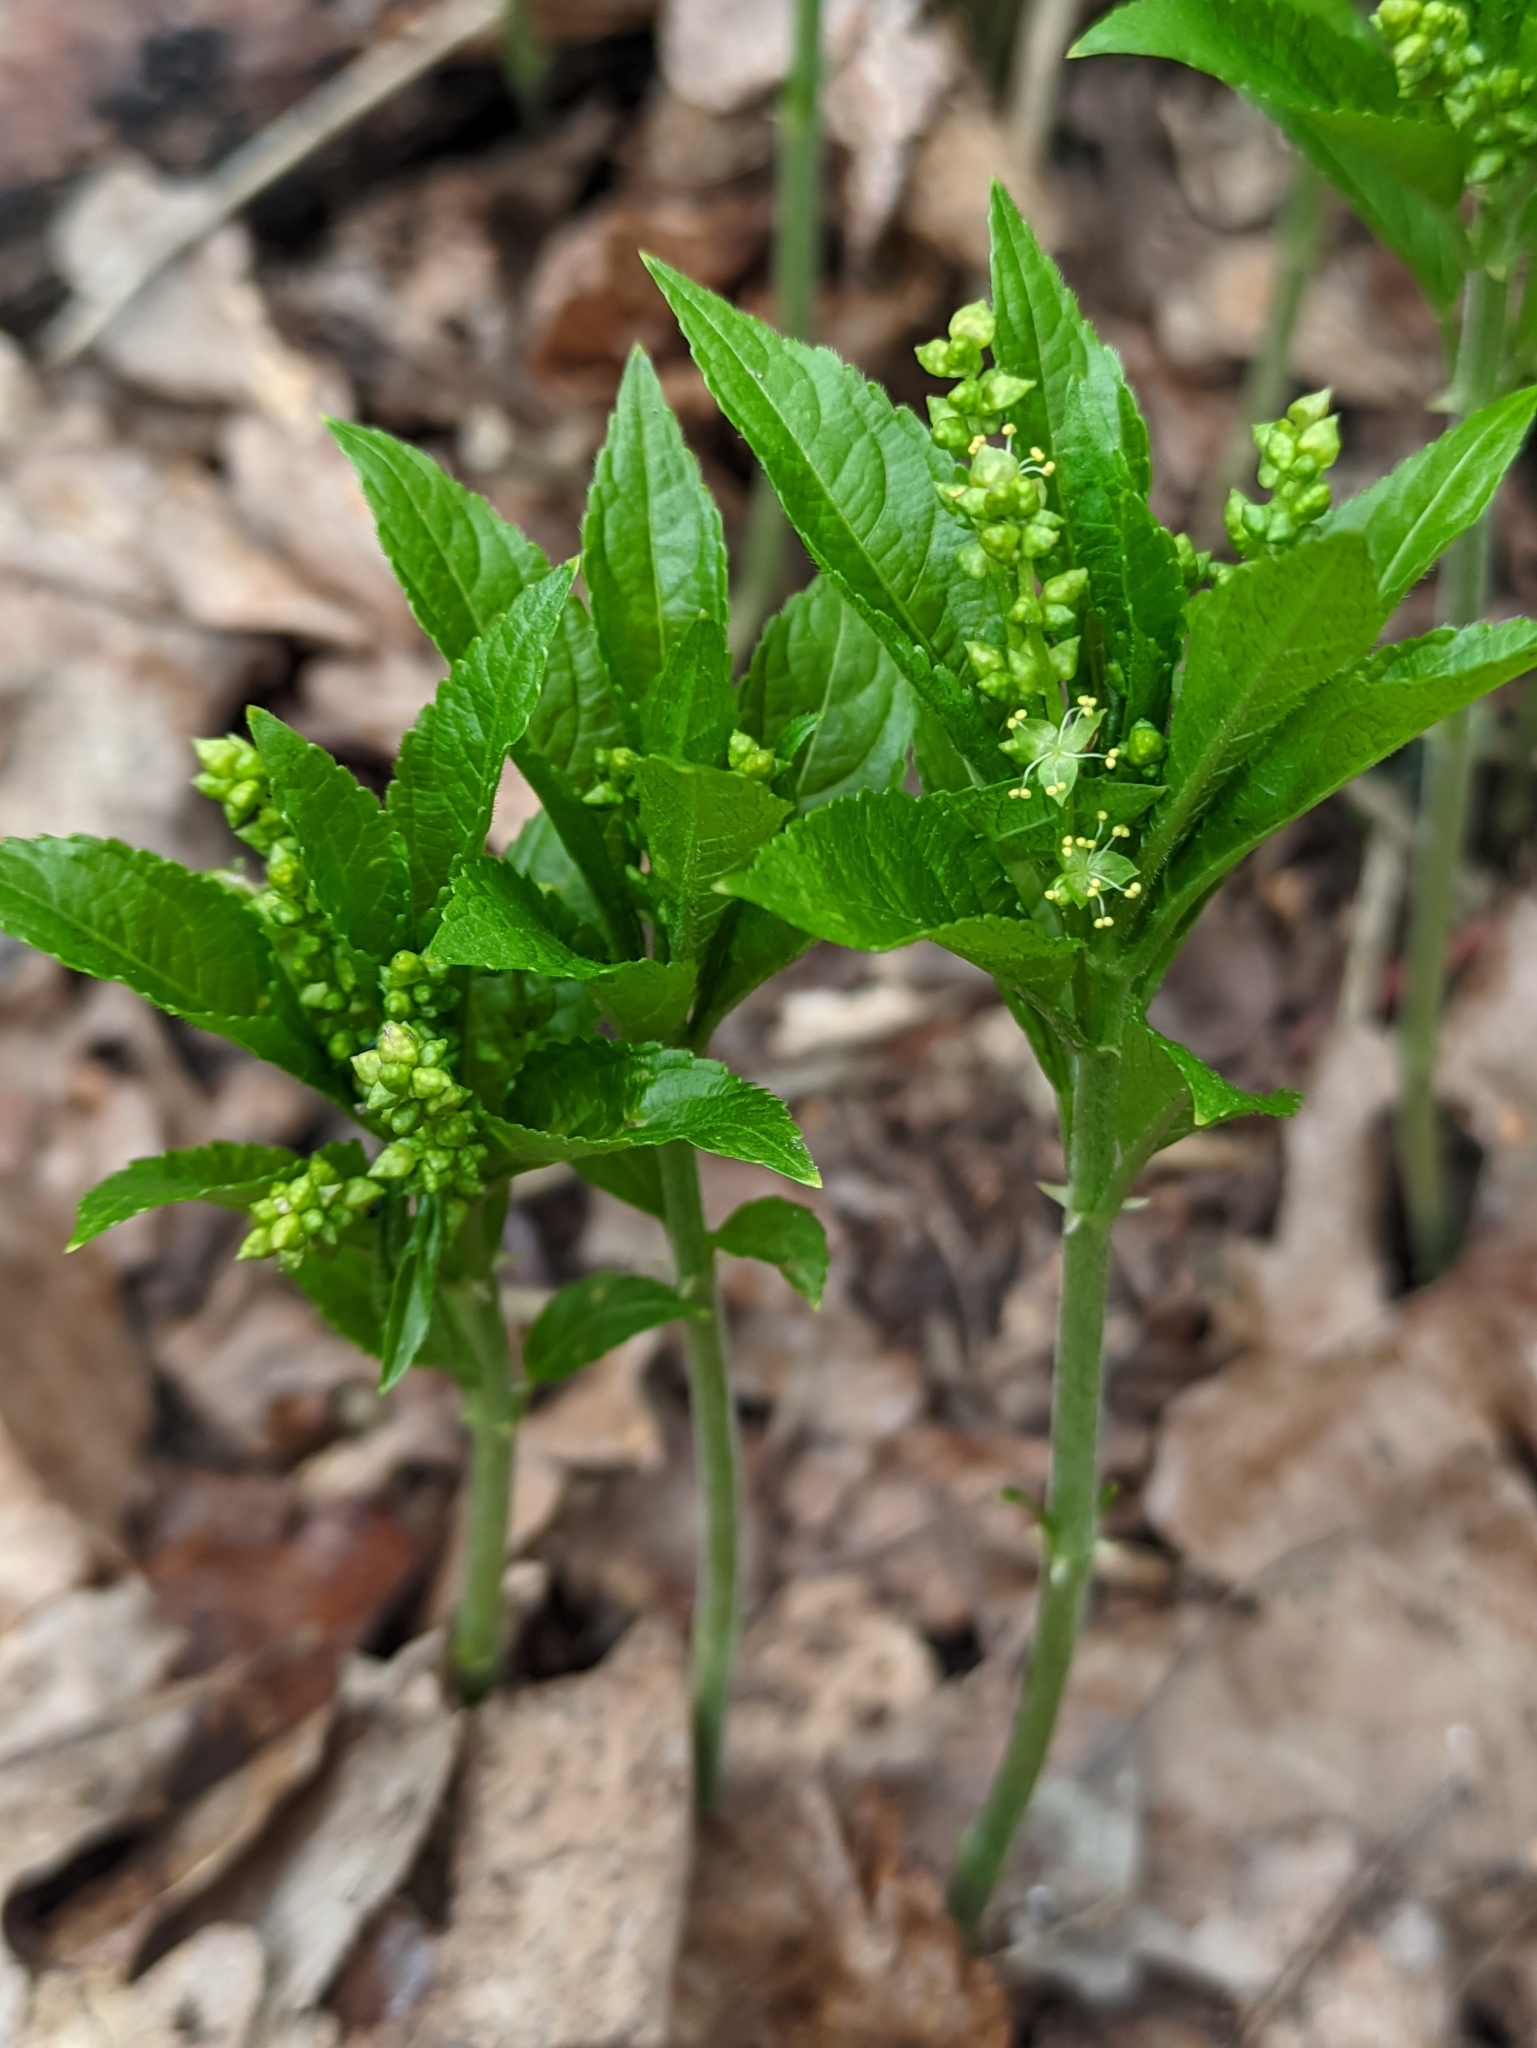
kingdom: Plantae
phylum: Tracheophyta
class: Magnoliopsida
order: Malpighiales
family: Euphorbiaceae
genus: Mercurialis
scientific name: Mercurialis perennis
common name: Dog mercury
